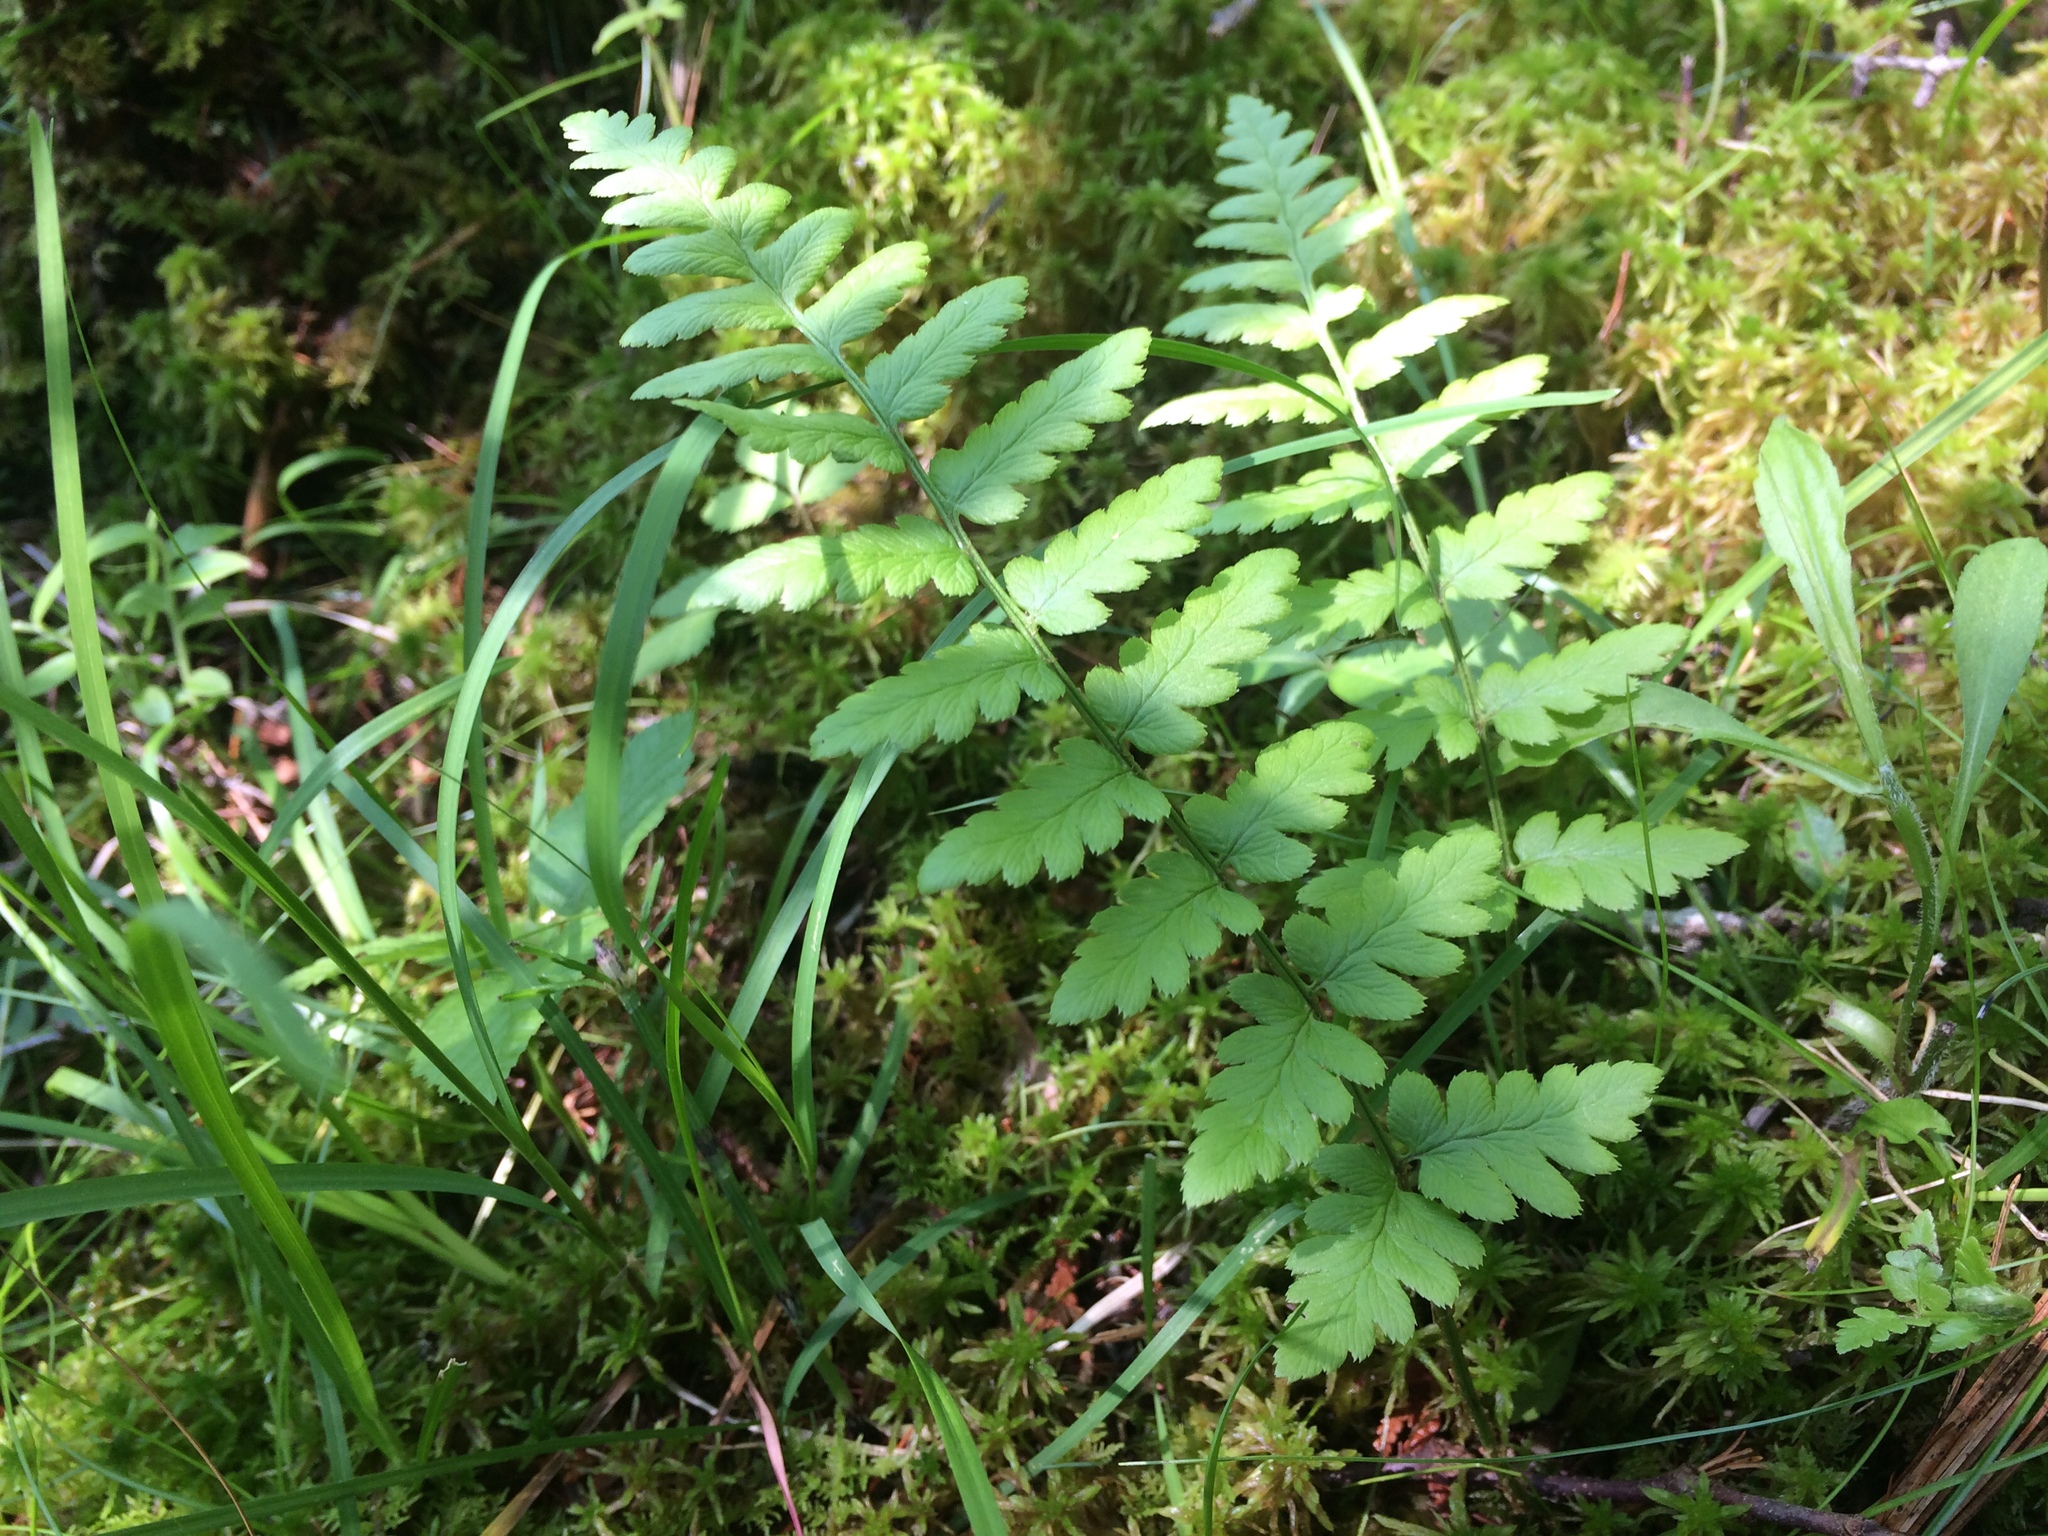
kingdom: Plantae
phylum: Tracheophyta
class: Polypodiopsida
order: Polypodiales
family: Dryopteridaceae
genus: Dryopteris
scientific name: Dryopteris cristata
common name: Crested wood fern
